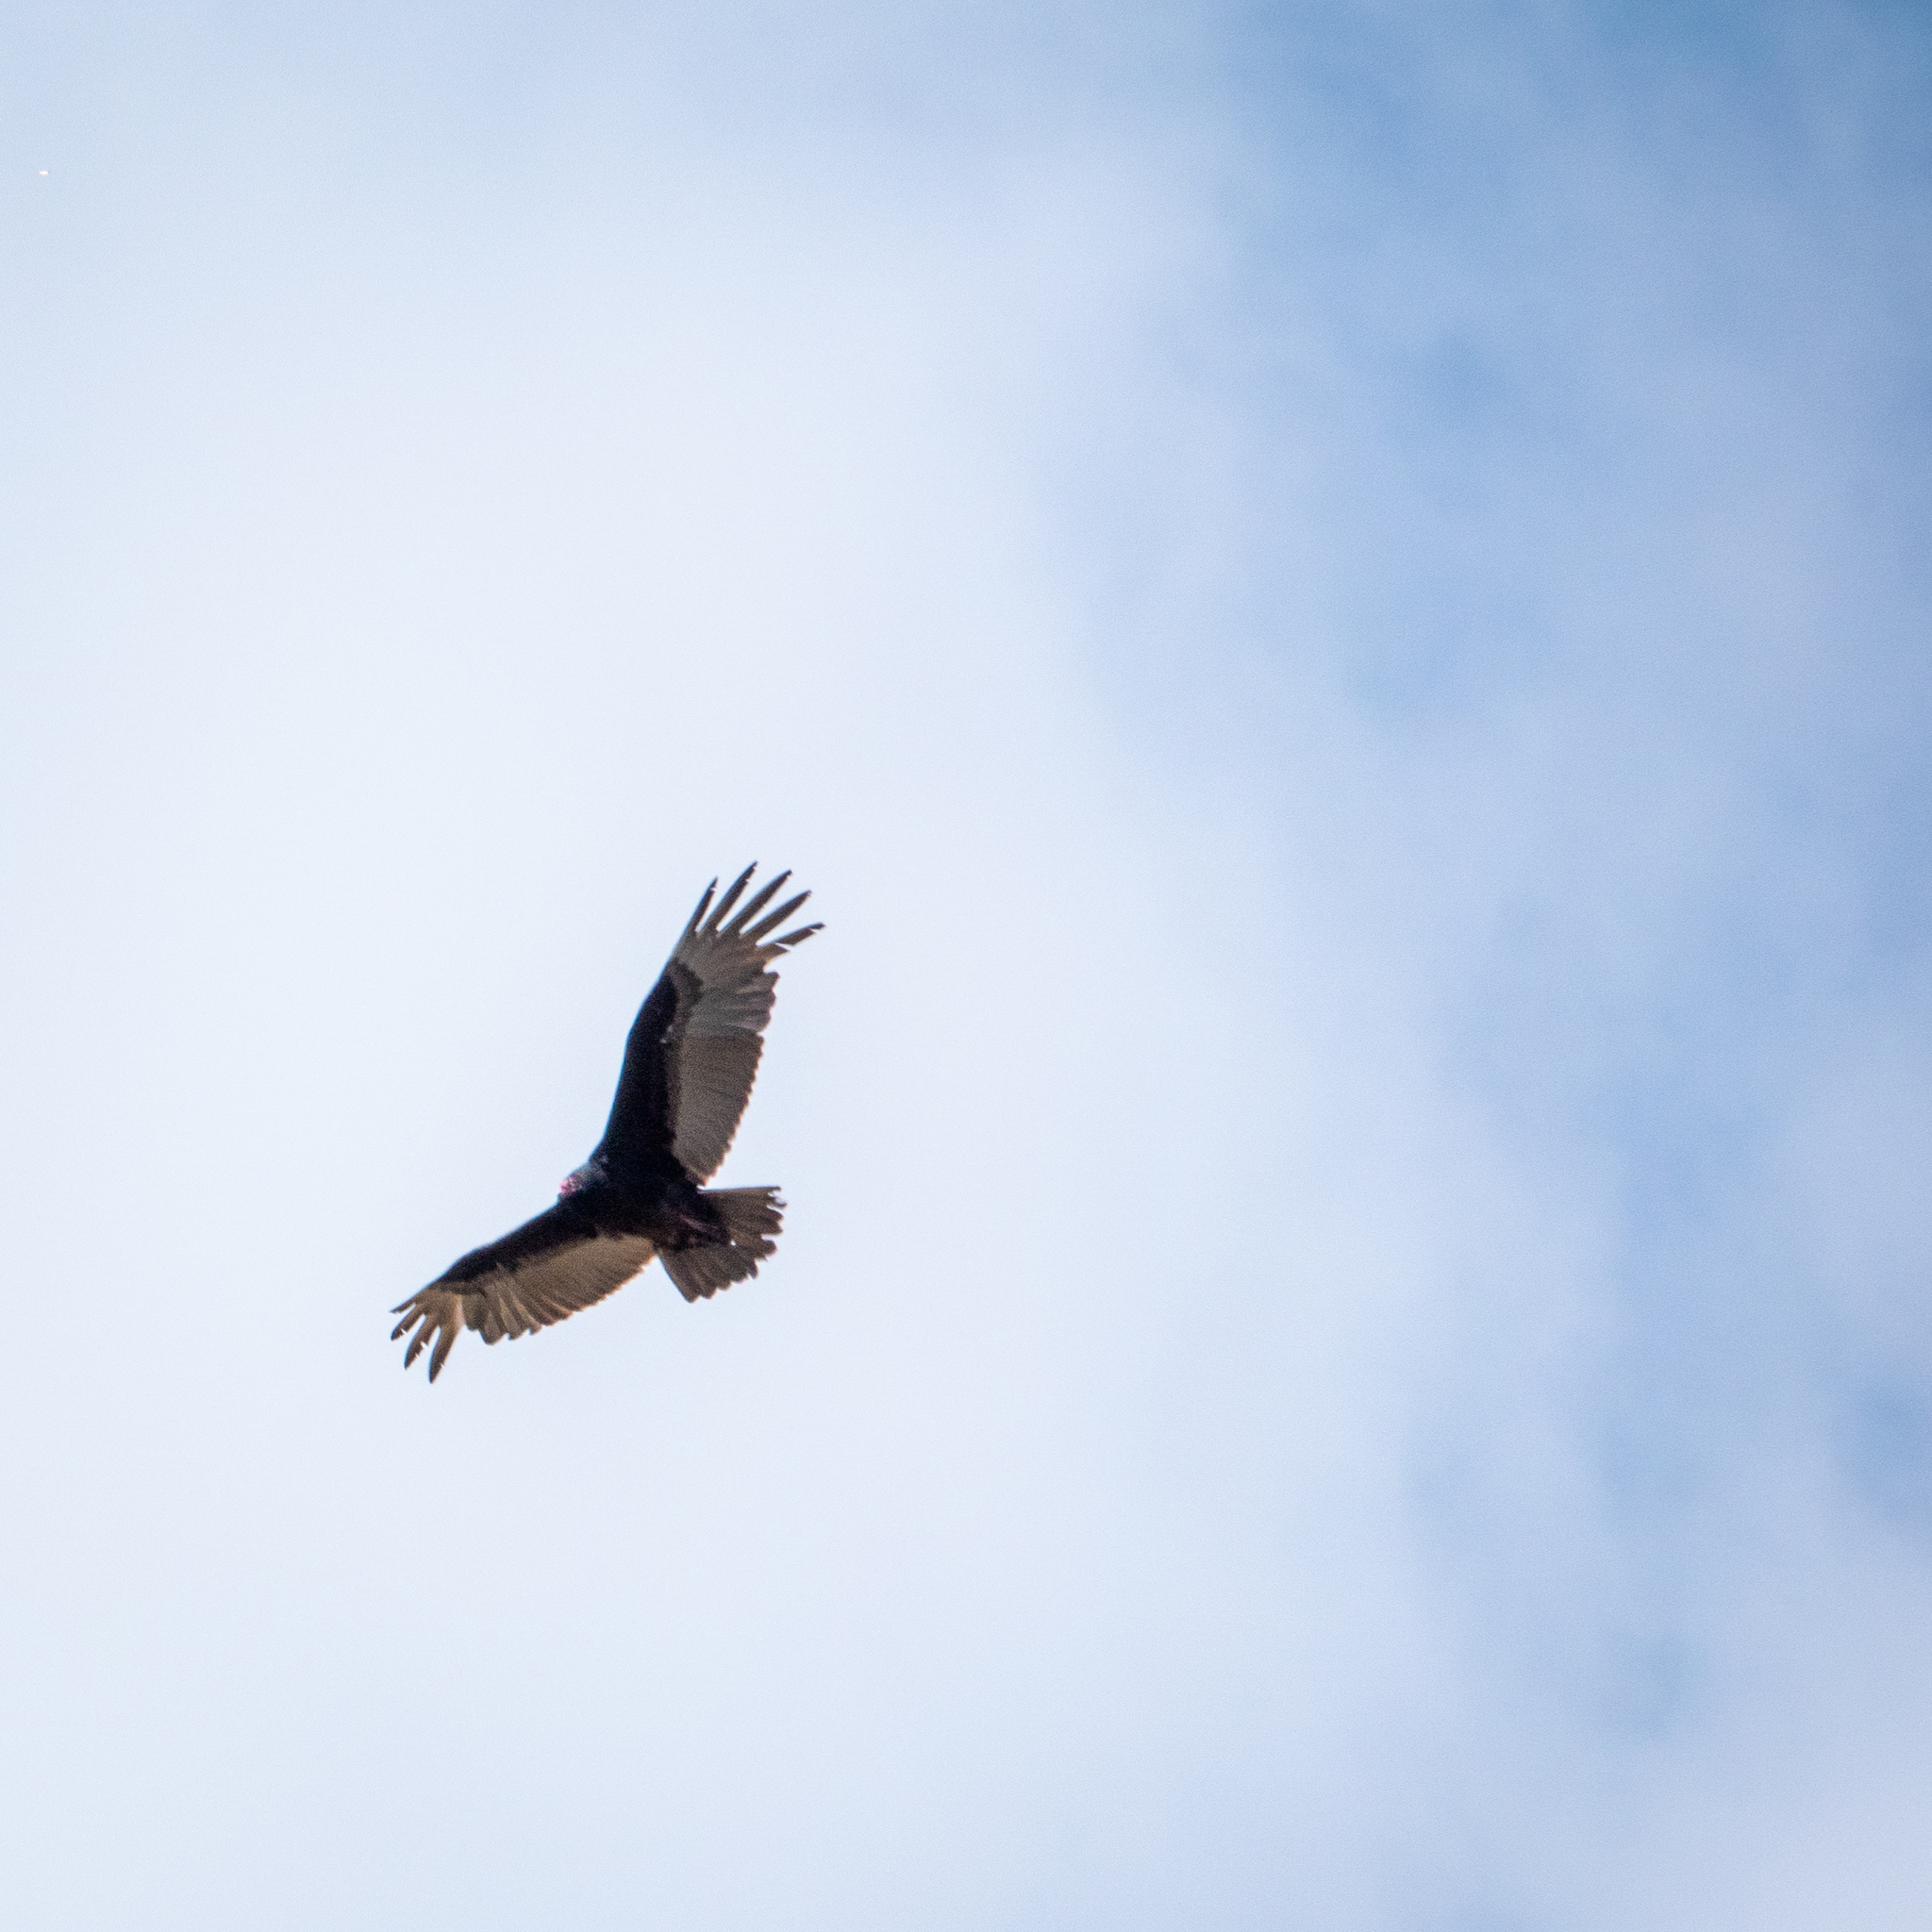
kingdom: Animalia
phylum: Chordata
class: Aves
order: Accipitriformes
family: Cathartidae
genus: Cathartes
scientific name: Cathartes aura
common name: Turkey vulture
